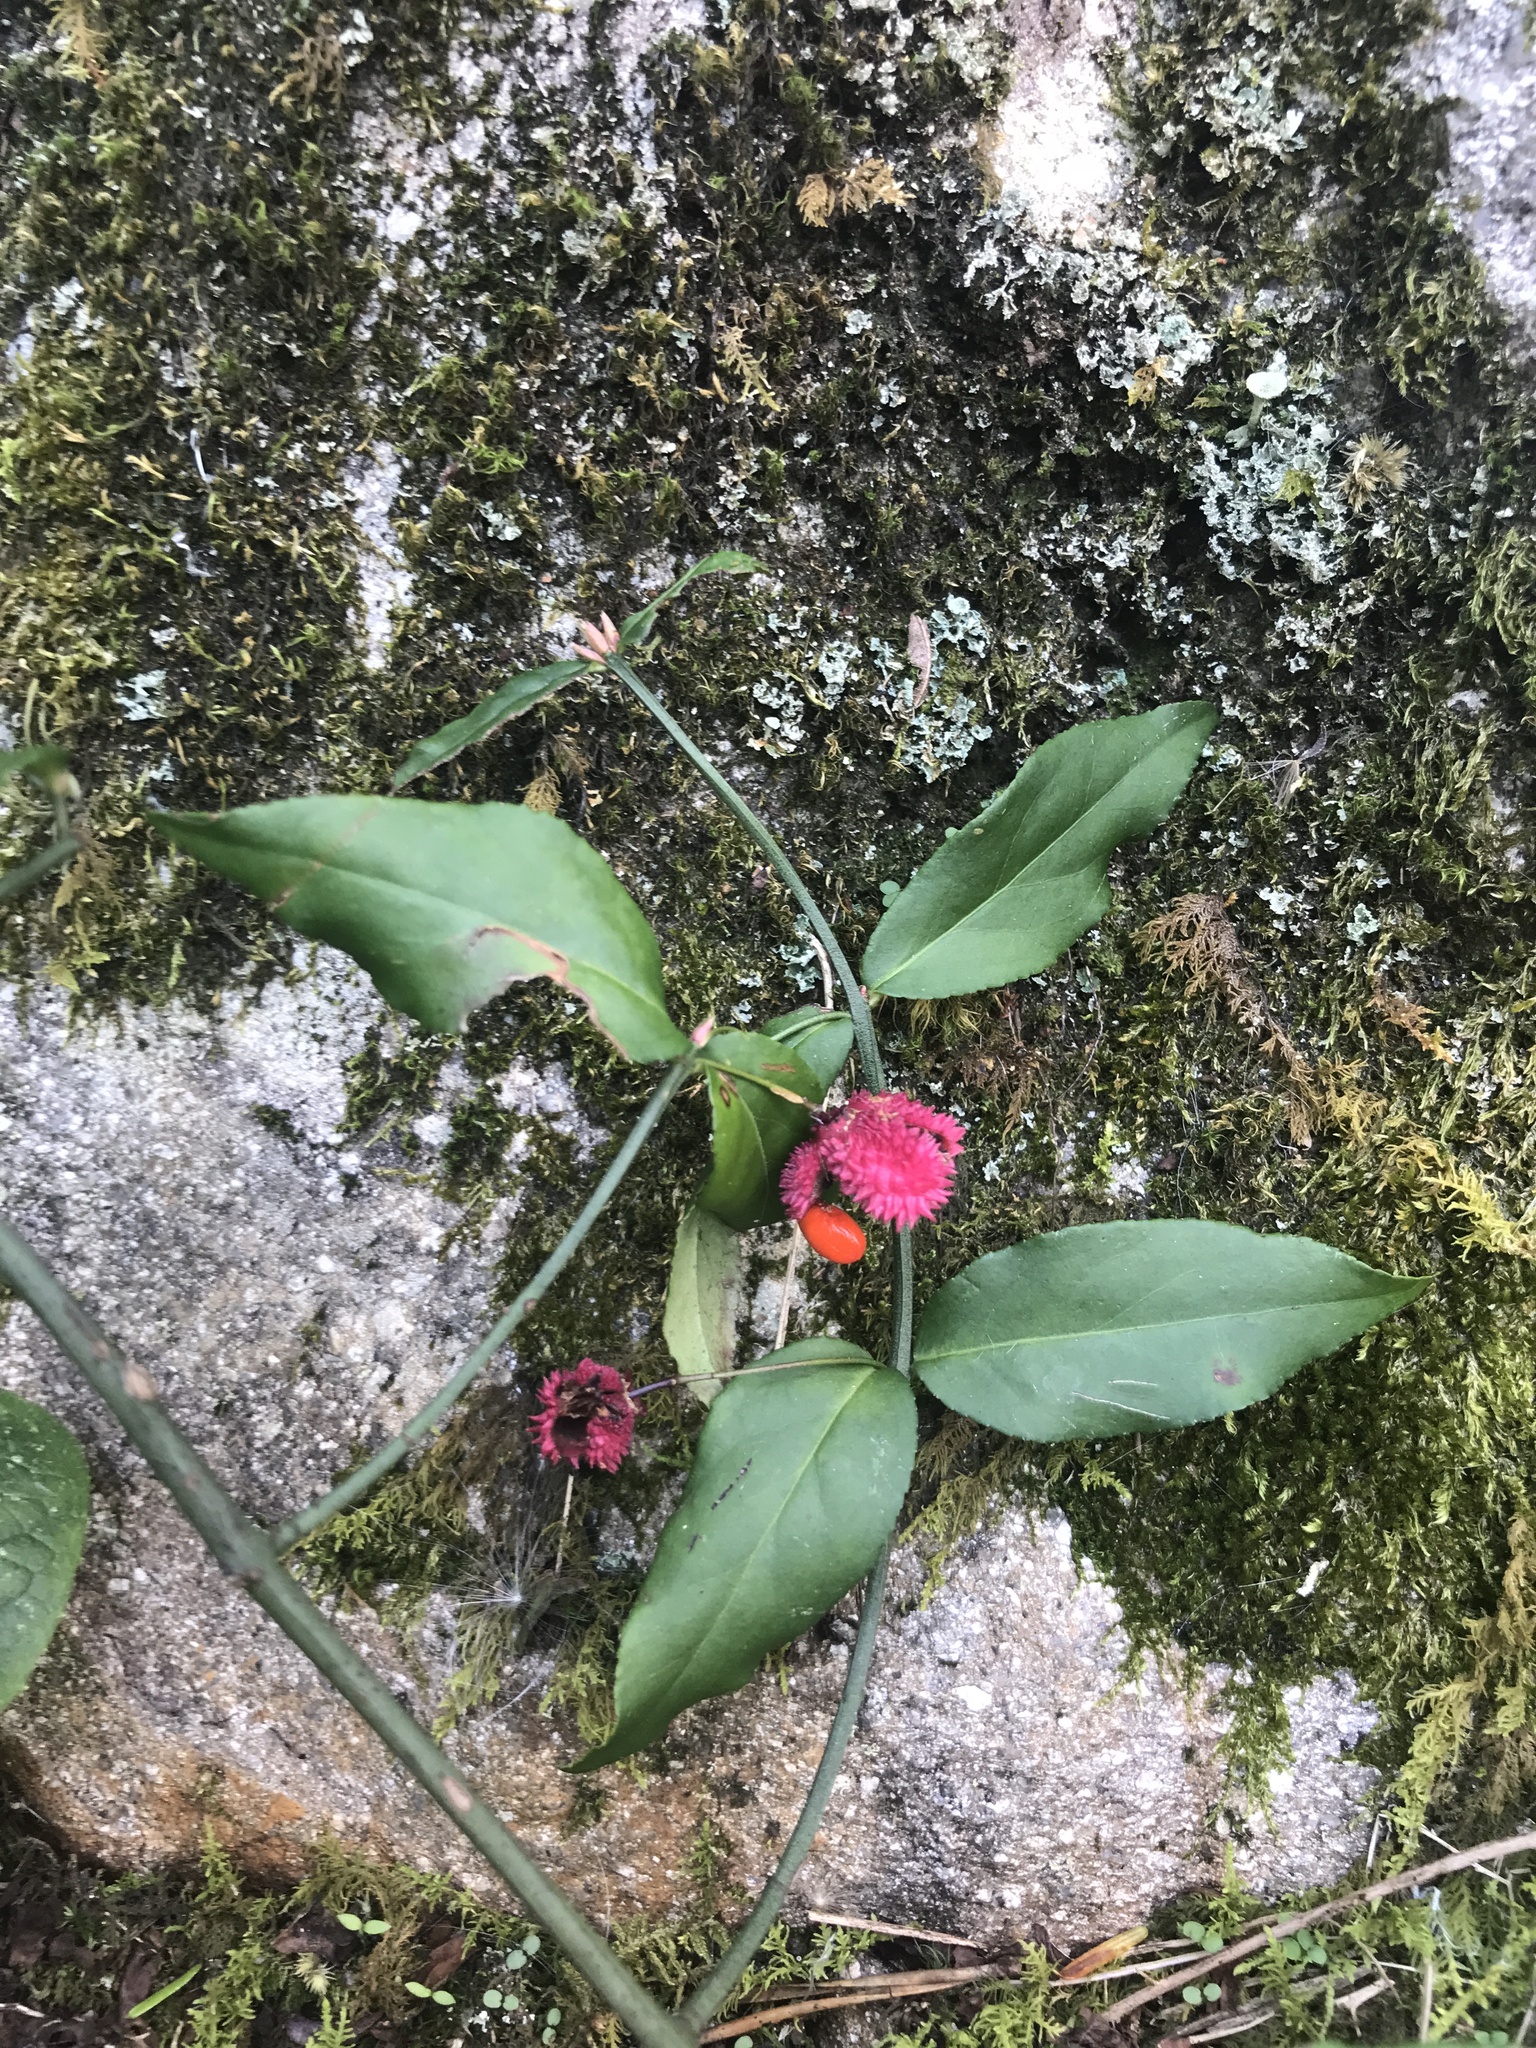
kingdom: Plantae
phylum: Tracheophyta
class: Magnoliopsida
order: Celastrales
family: Celastraceae
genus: Euonymus
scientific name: Euonymus americanus
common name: Bursting-heart
